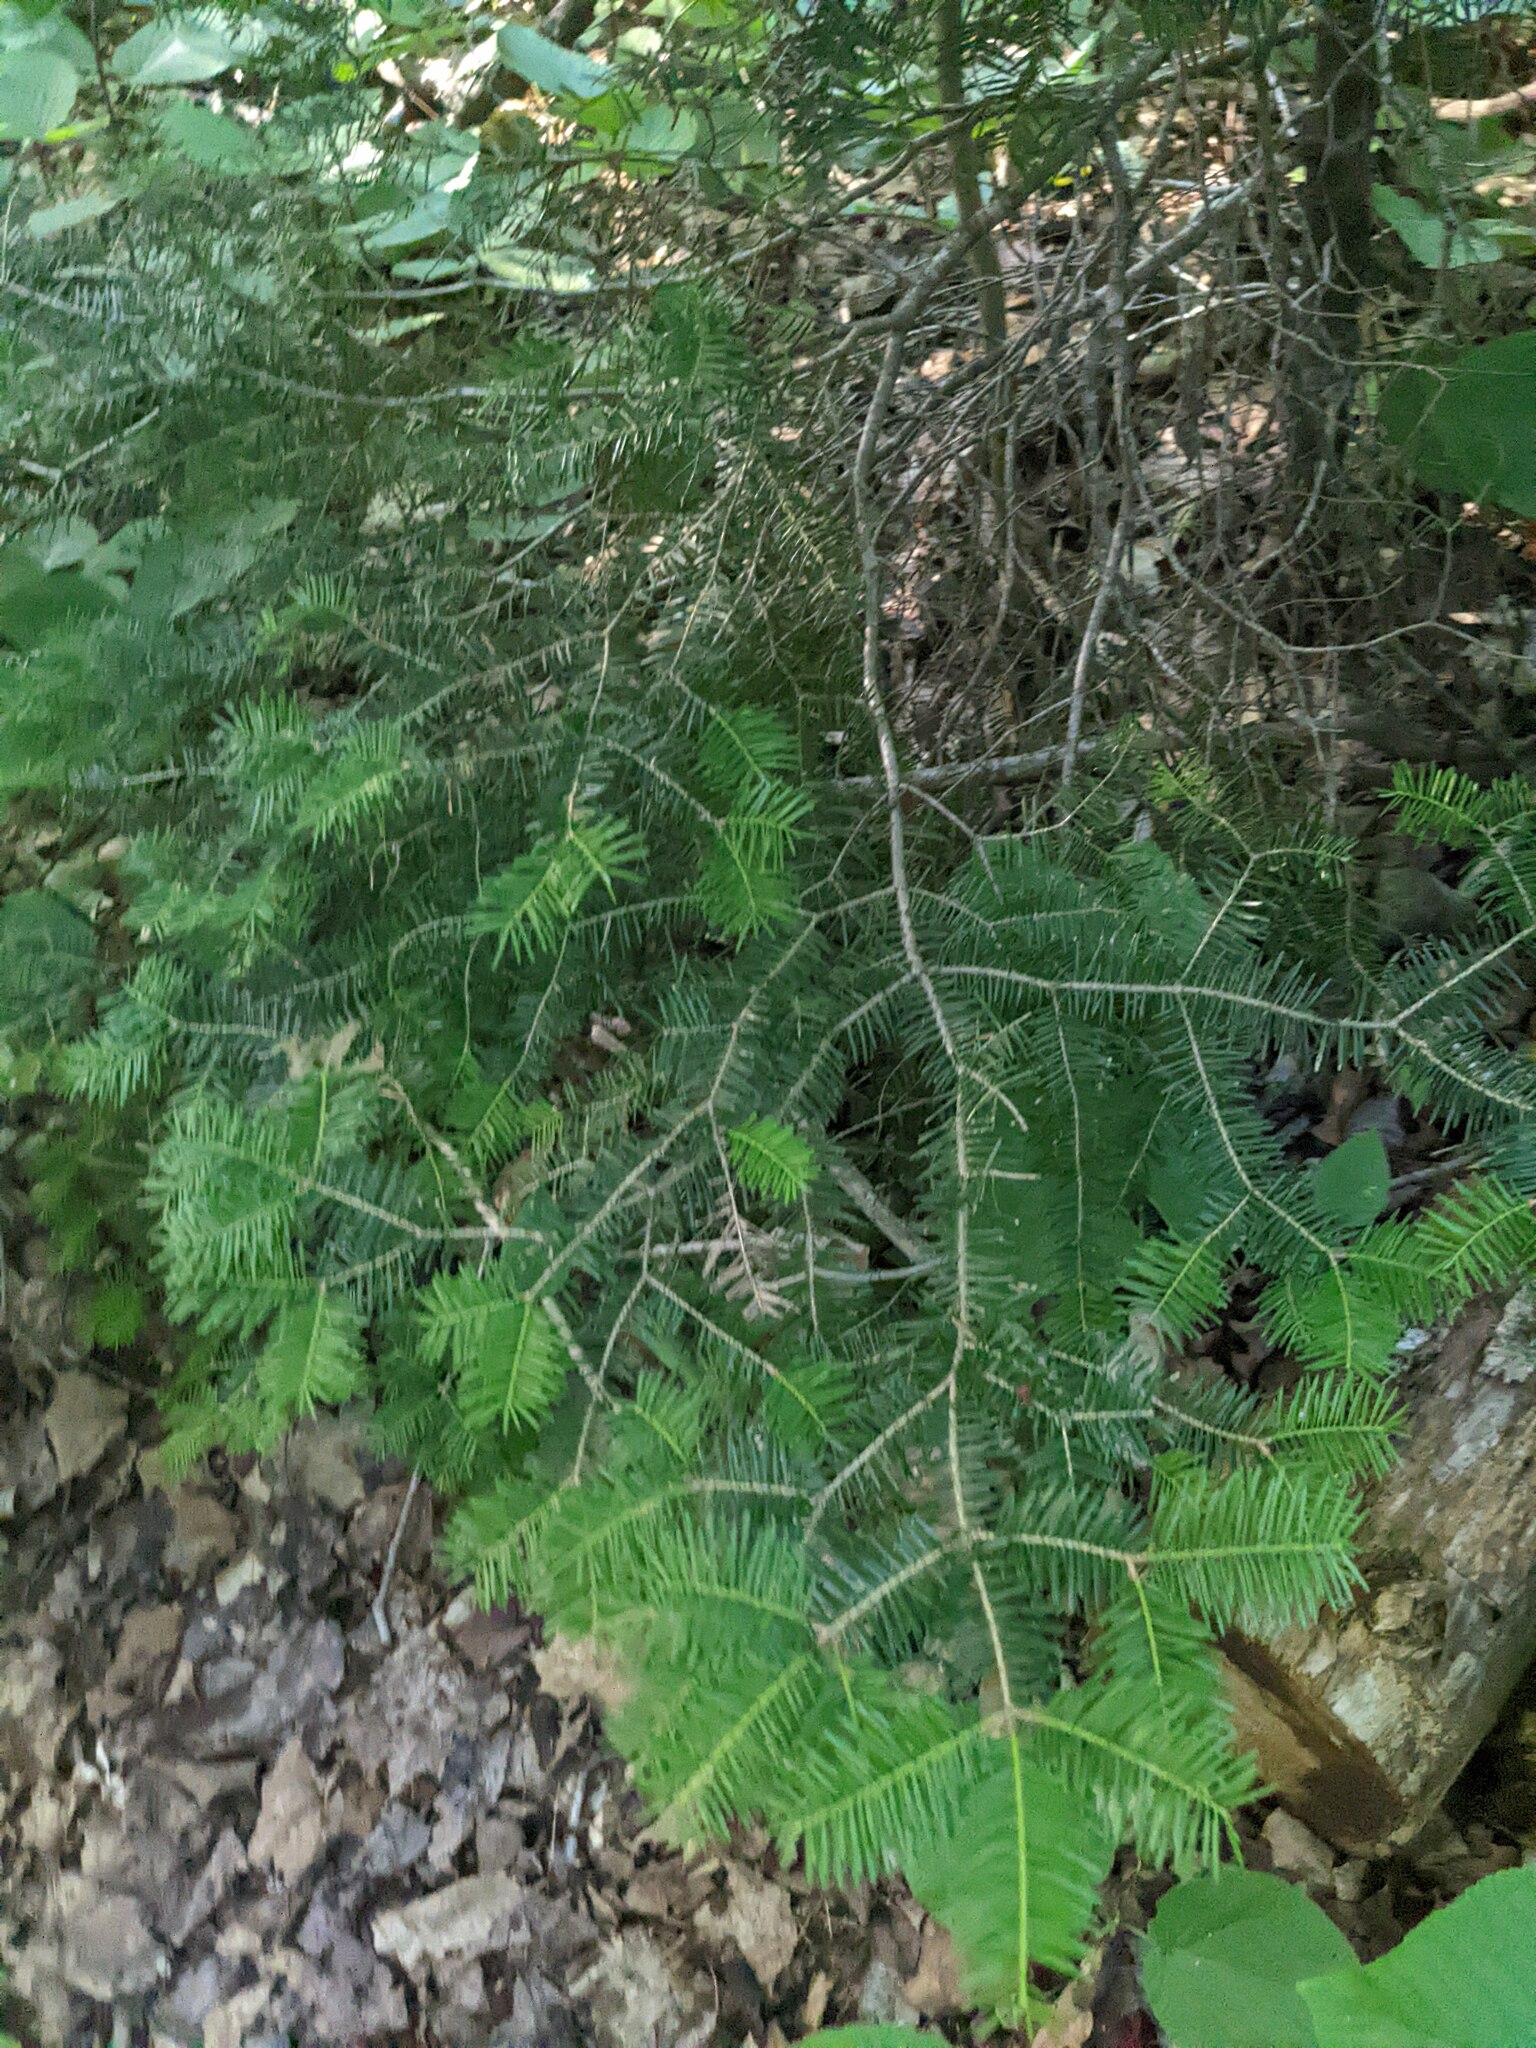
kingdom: Plantae
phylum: Tracheophyta
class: Pinopsida
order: Pinales
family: Pinaceae
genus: Abies
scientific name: Abies balsamea
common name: Balsam fir
